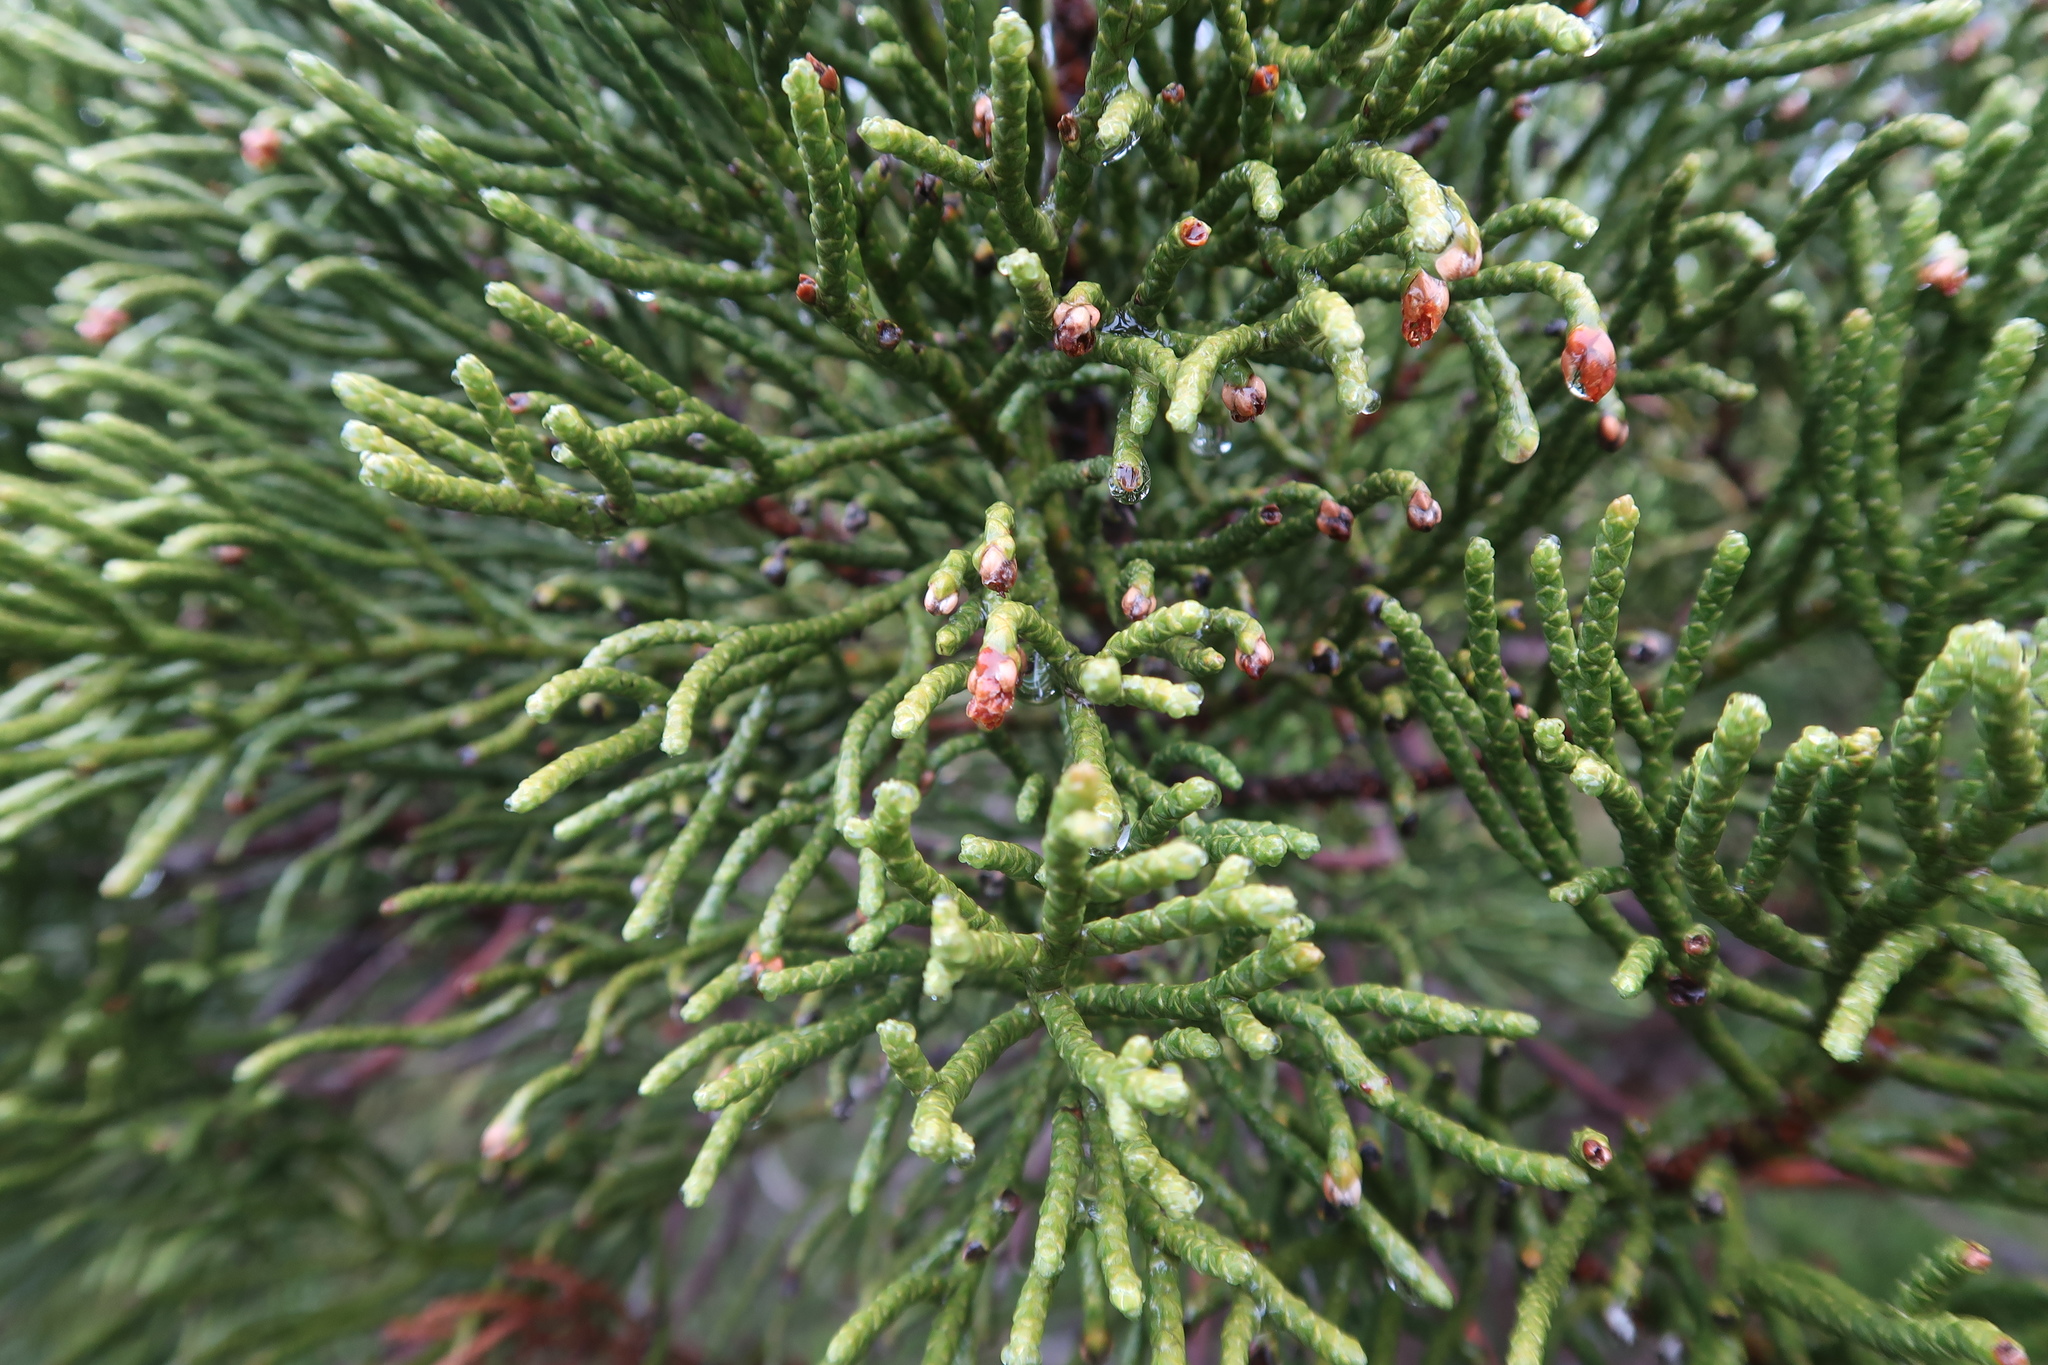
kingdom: Plantae
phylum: Tracheophyta
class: Pinopsida
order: Pinales
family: Cupressaceae
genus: Athrotaxis
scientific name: Athrotaxis cupressoides
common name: Tasmanian pencil pine
